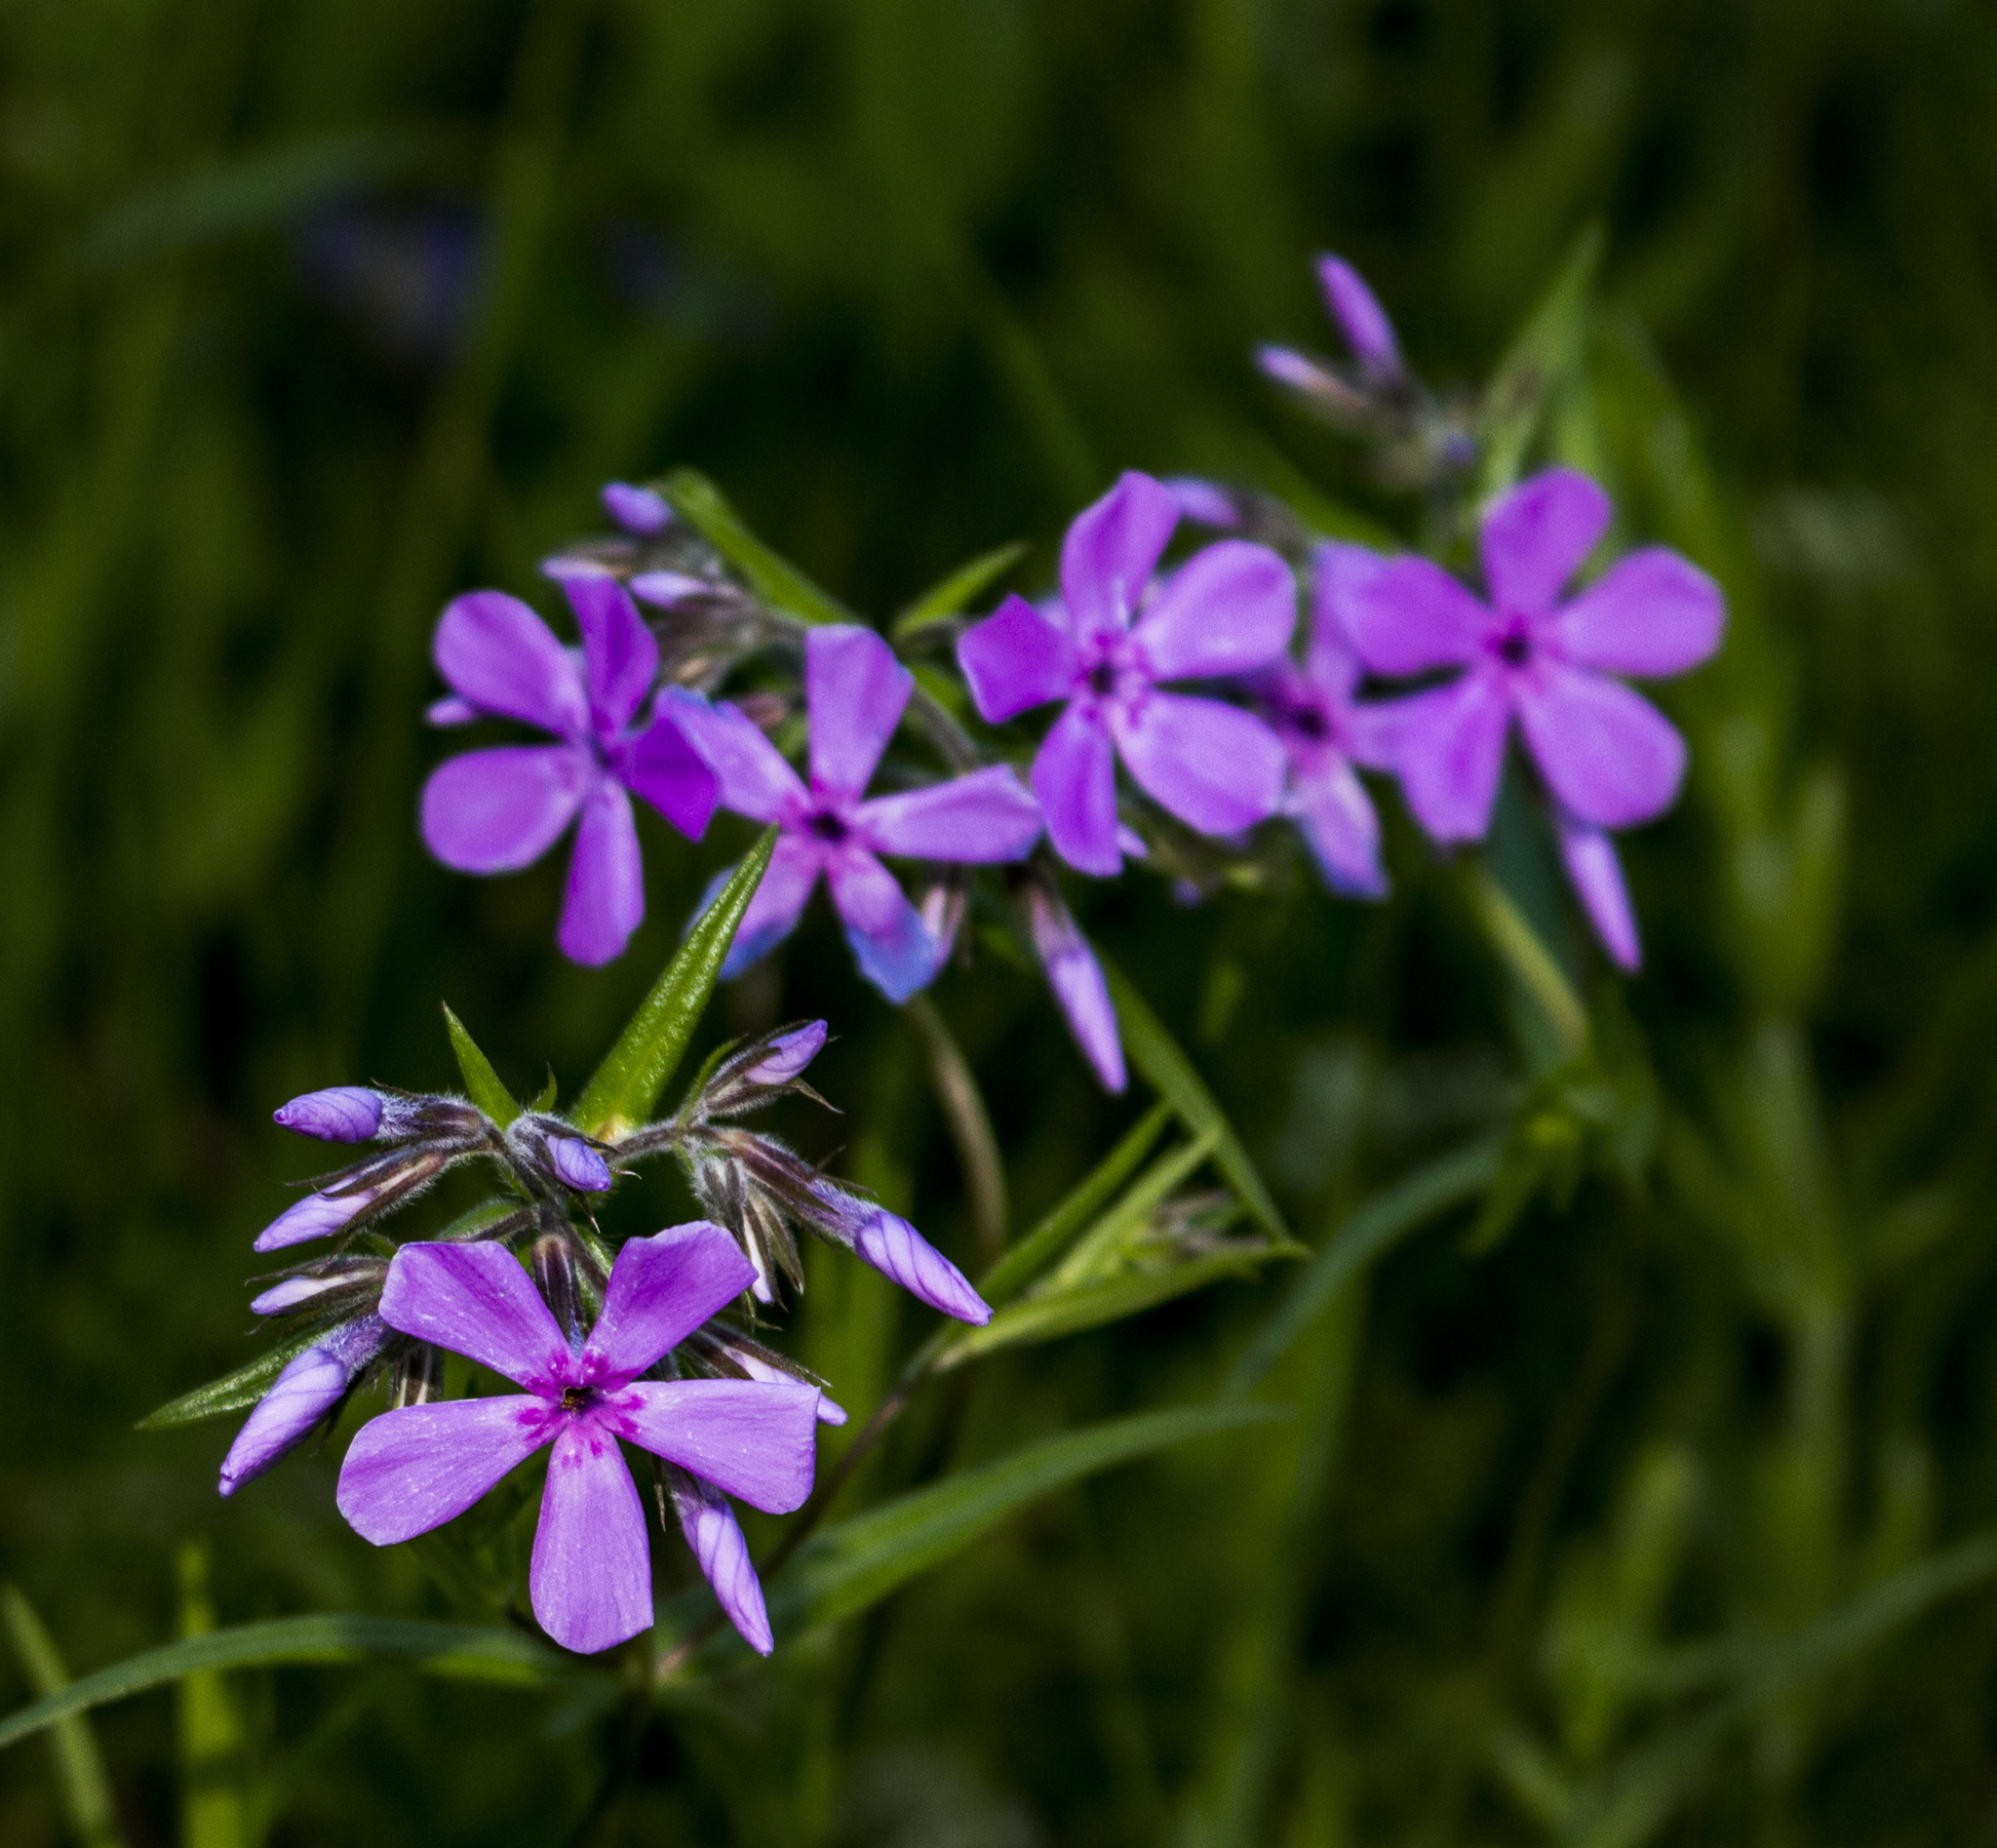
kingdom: Plantae
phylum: Tracheophyta
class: Magnoliopsida
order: Ericales
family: Polemoniaceae
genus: Phlox
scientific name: Phlox pilosa
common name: Prairie phlox
